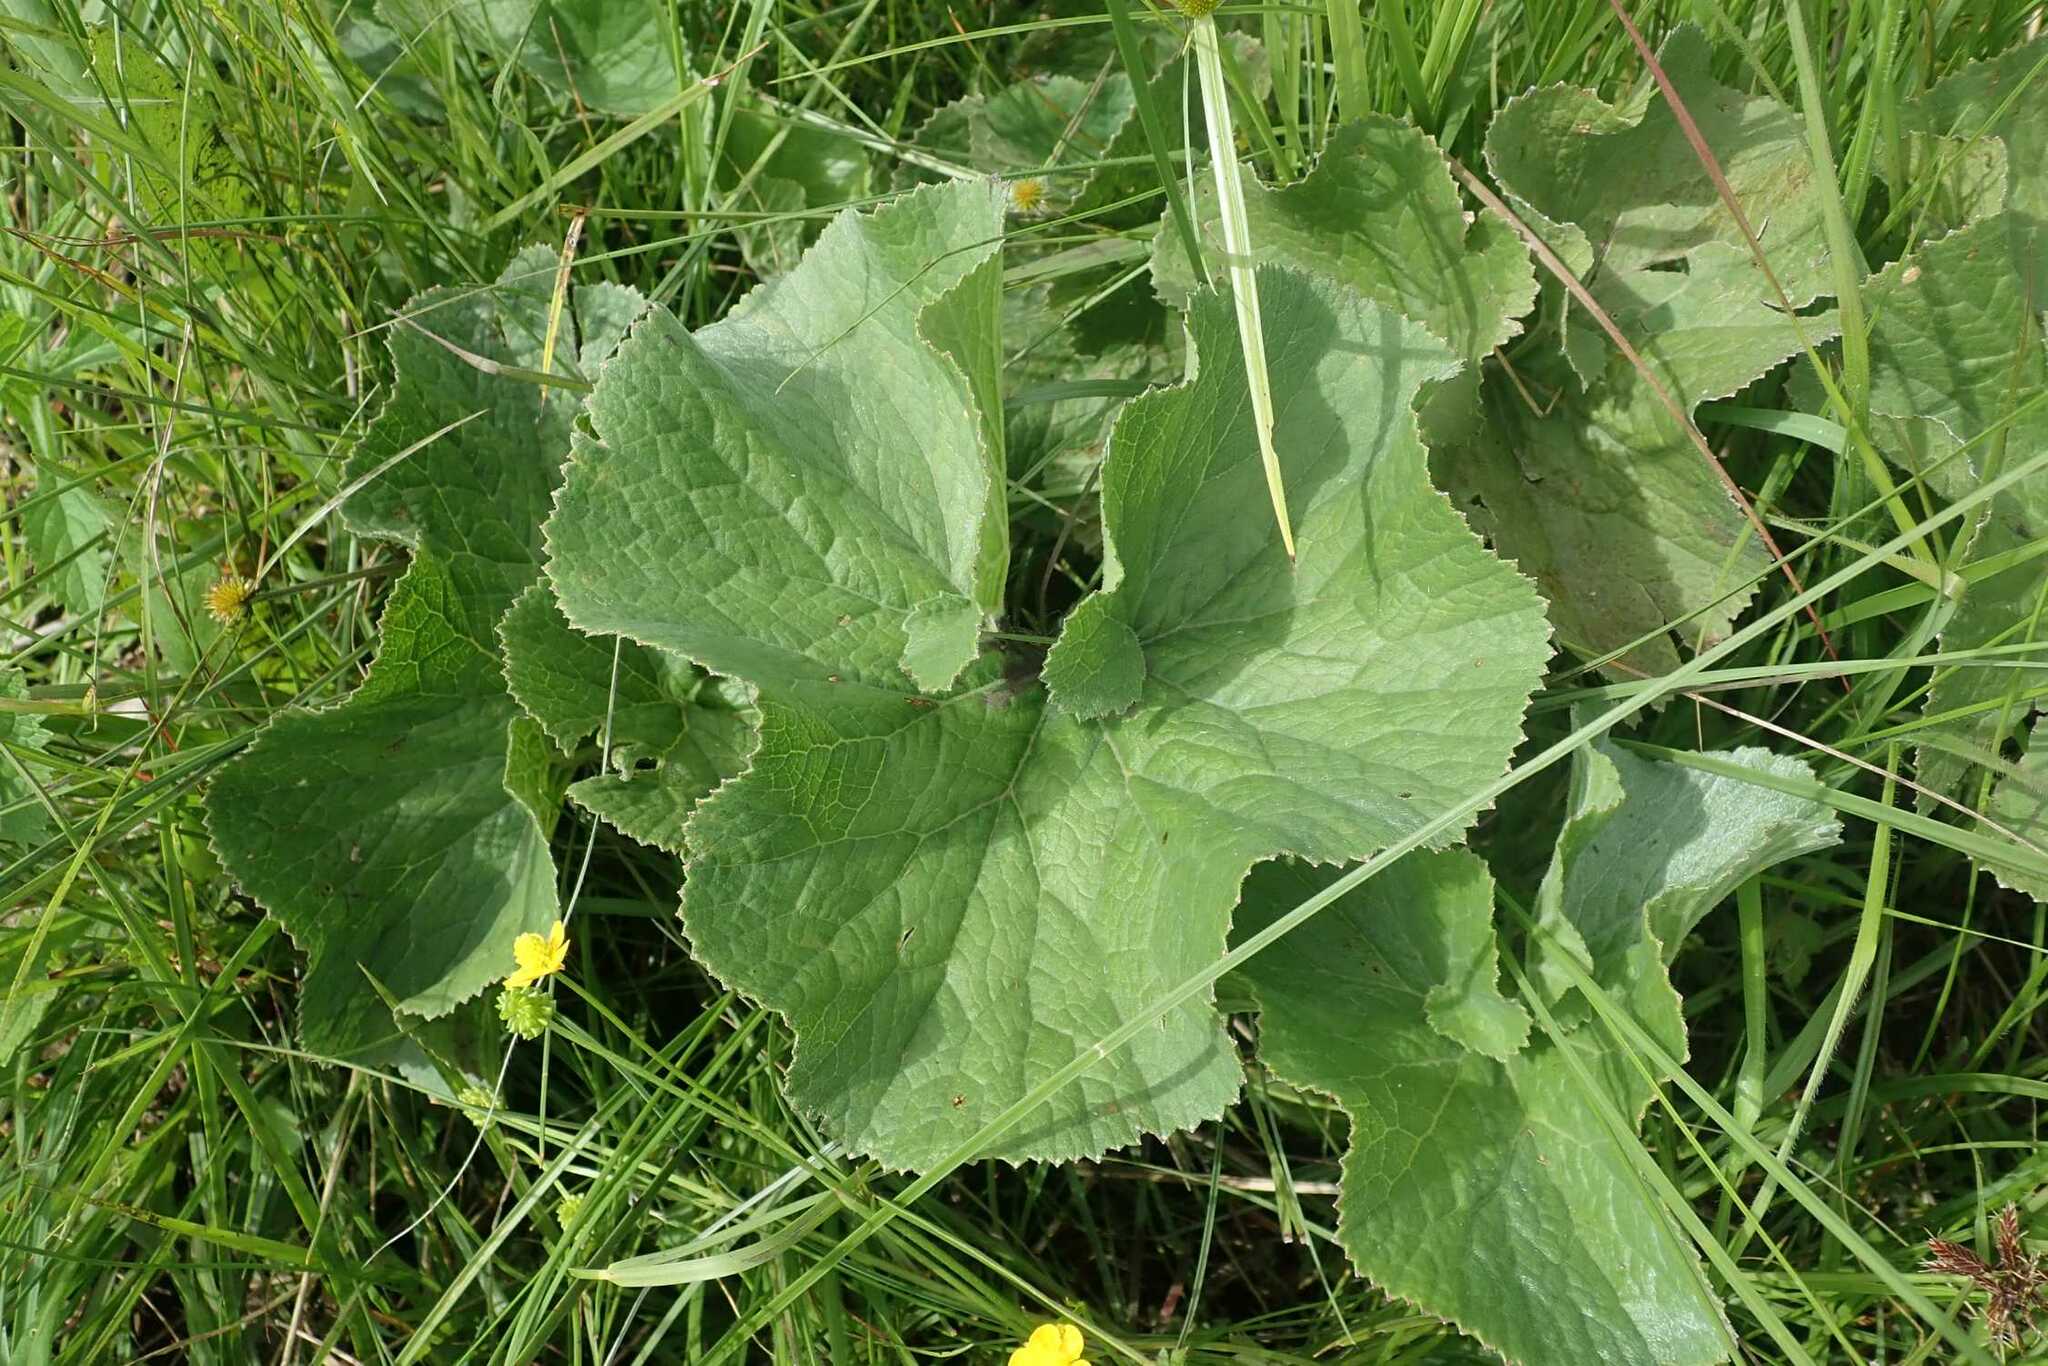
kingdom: Plantae
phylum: Tracheophyta
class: Magnoliopsida
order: Gunnerales
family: Gunneraceae
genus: Gunnera
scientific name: Gunnera perpensa
